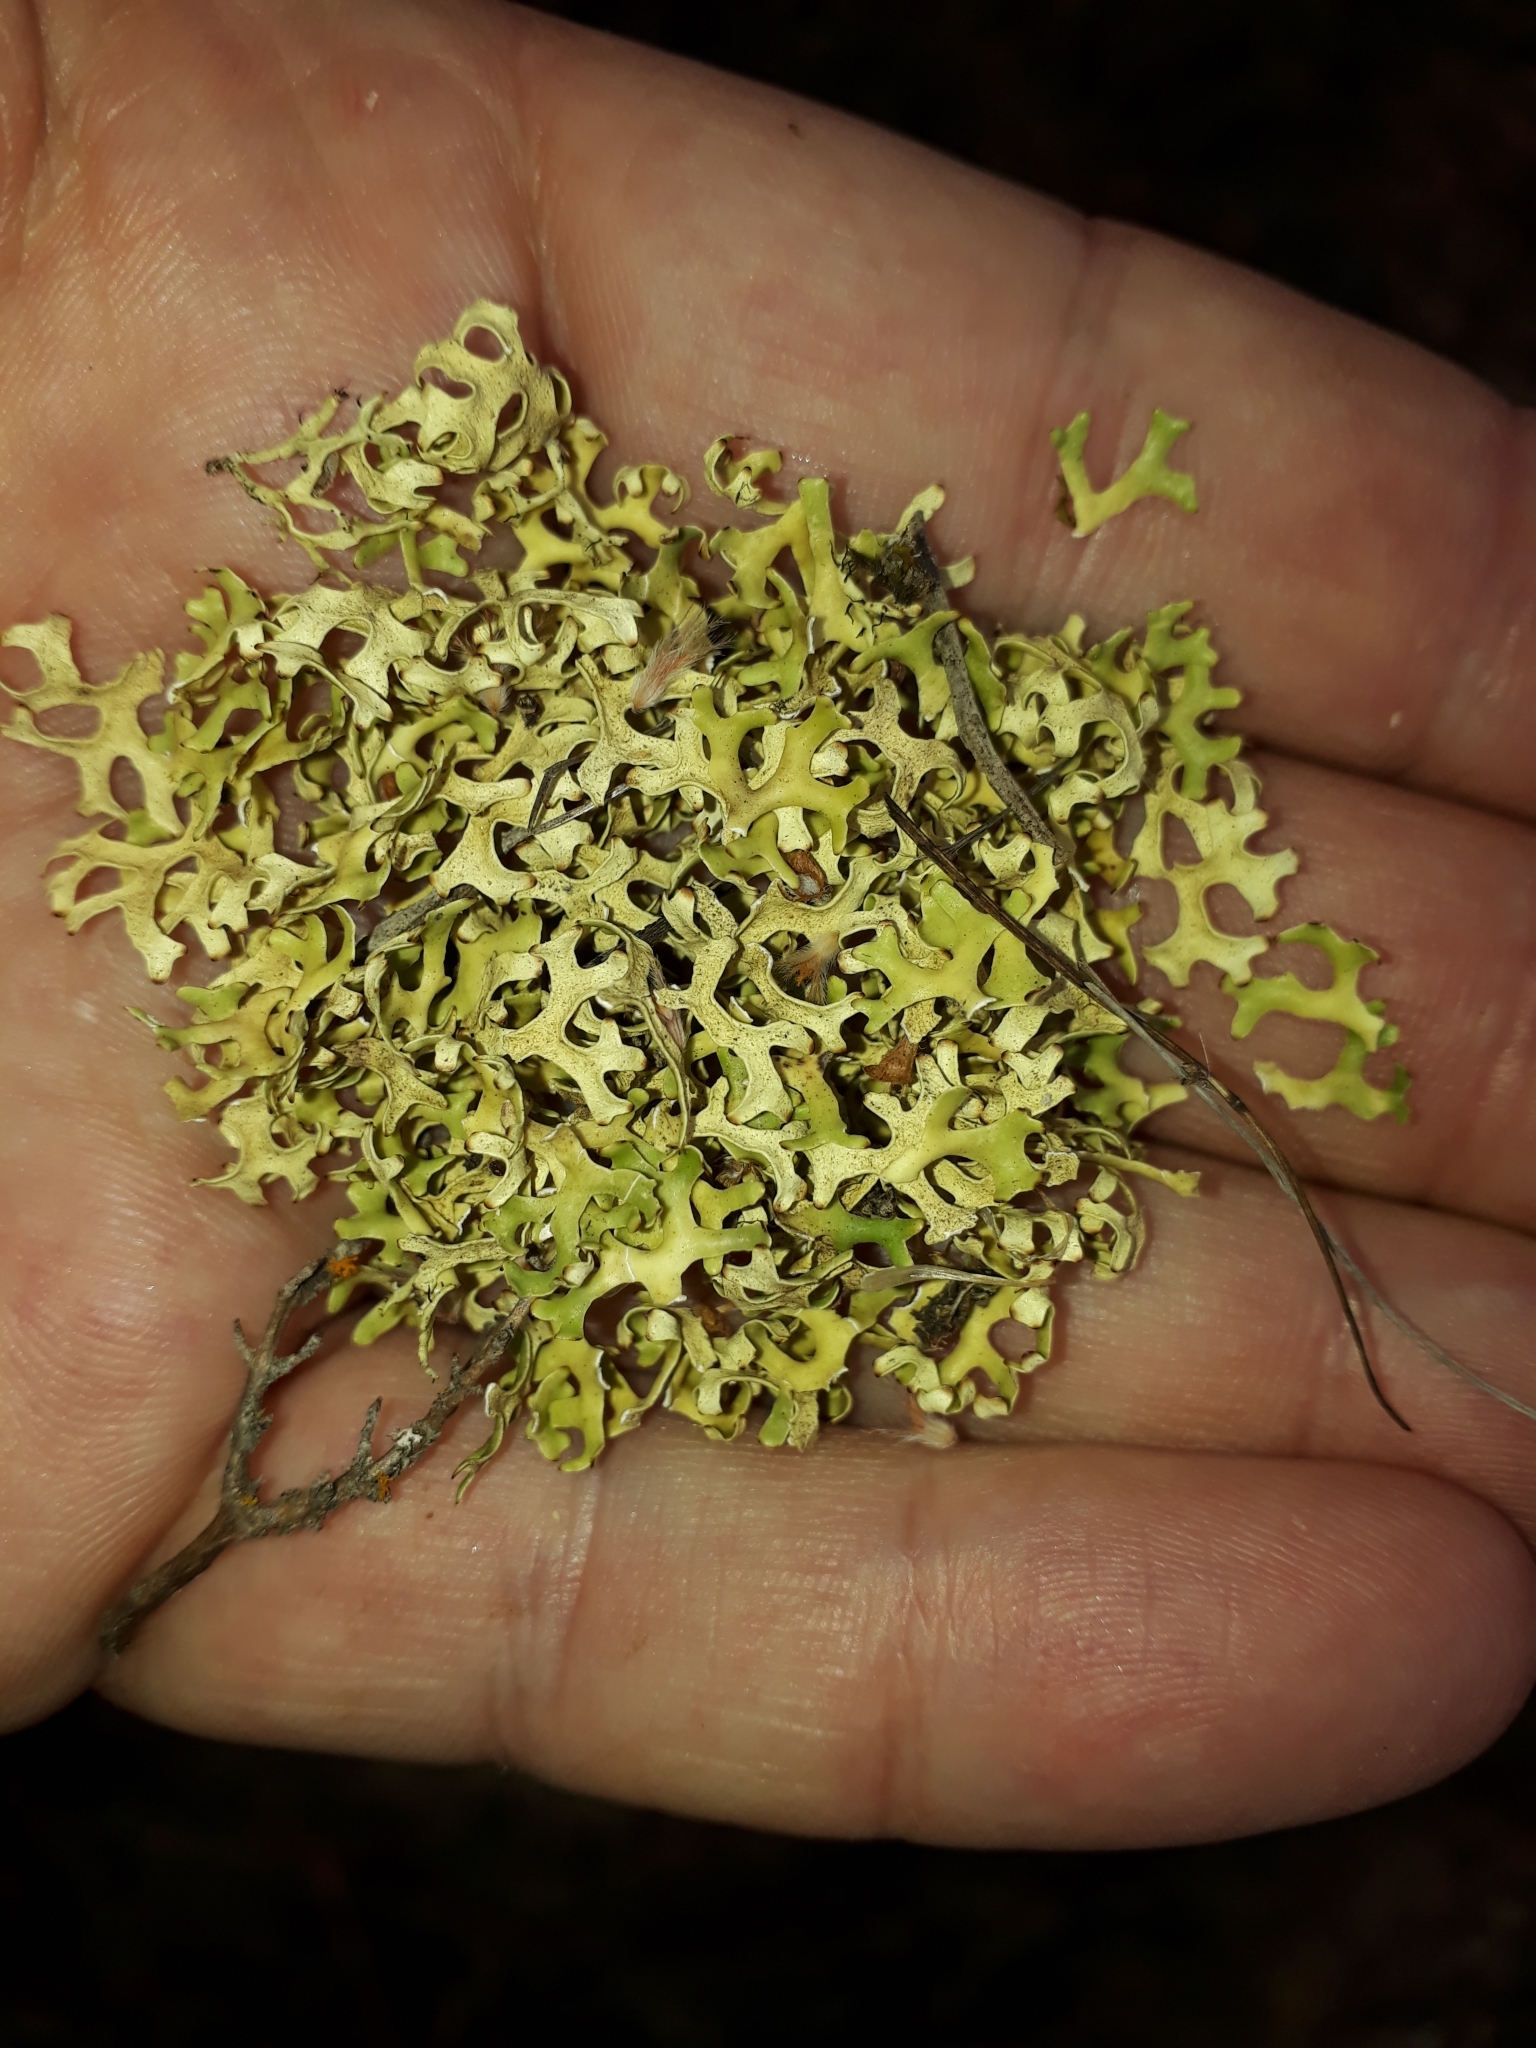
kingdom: Fungi
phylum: Ascomycota
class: Lecanoromycetes
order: Lecanorales
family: Parmeliaceae
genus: Xanthoparmelia
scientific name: Xanthoparmelia semiviridis
